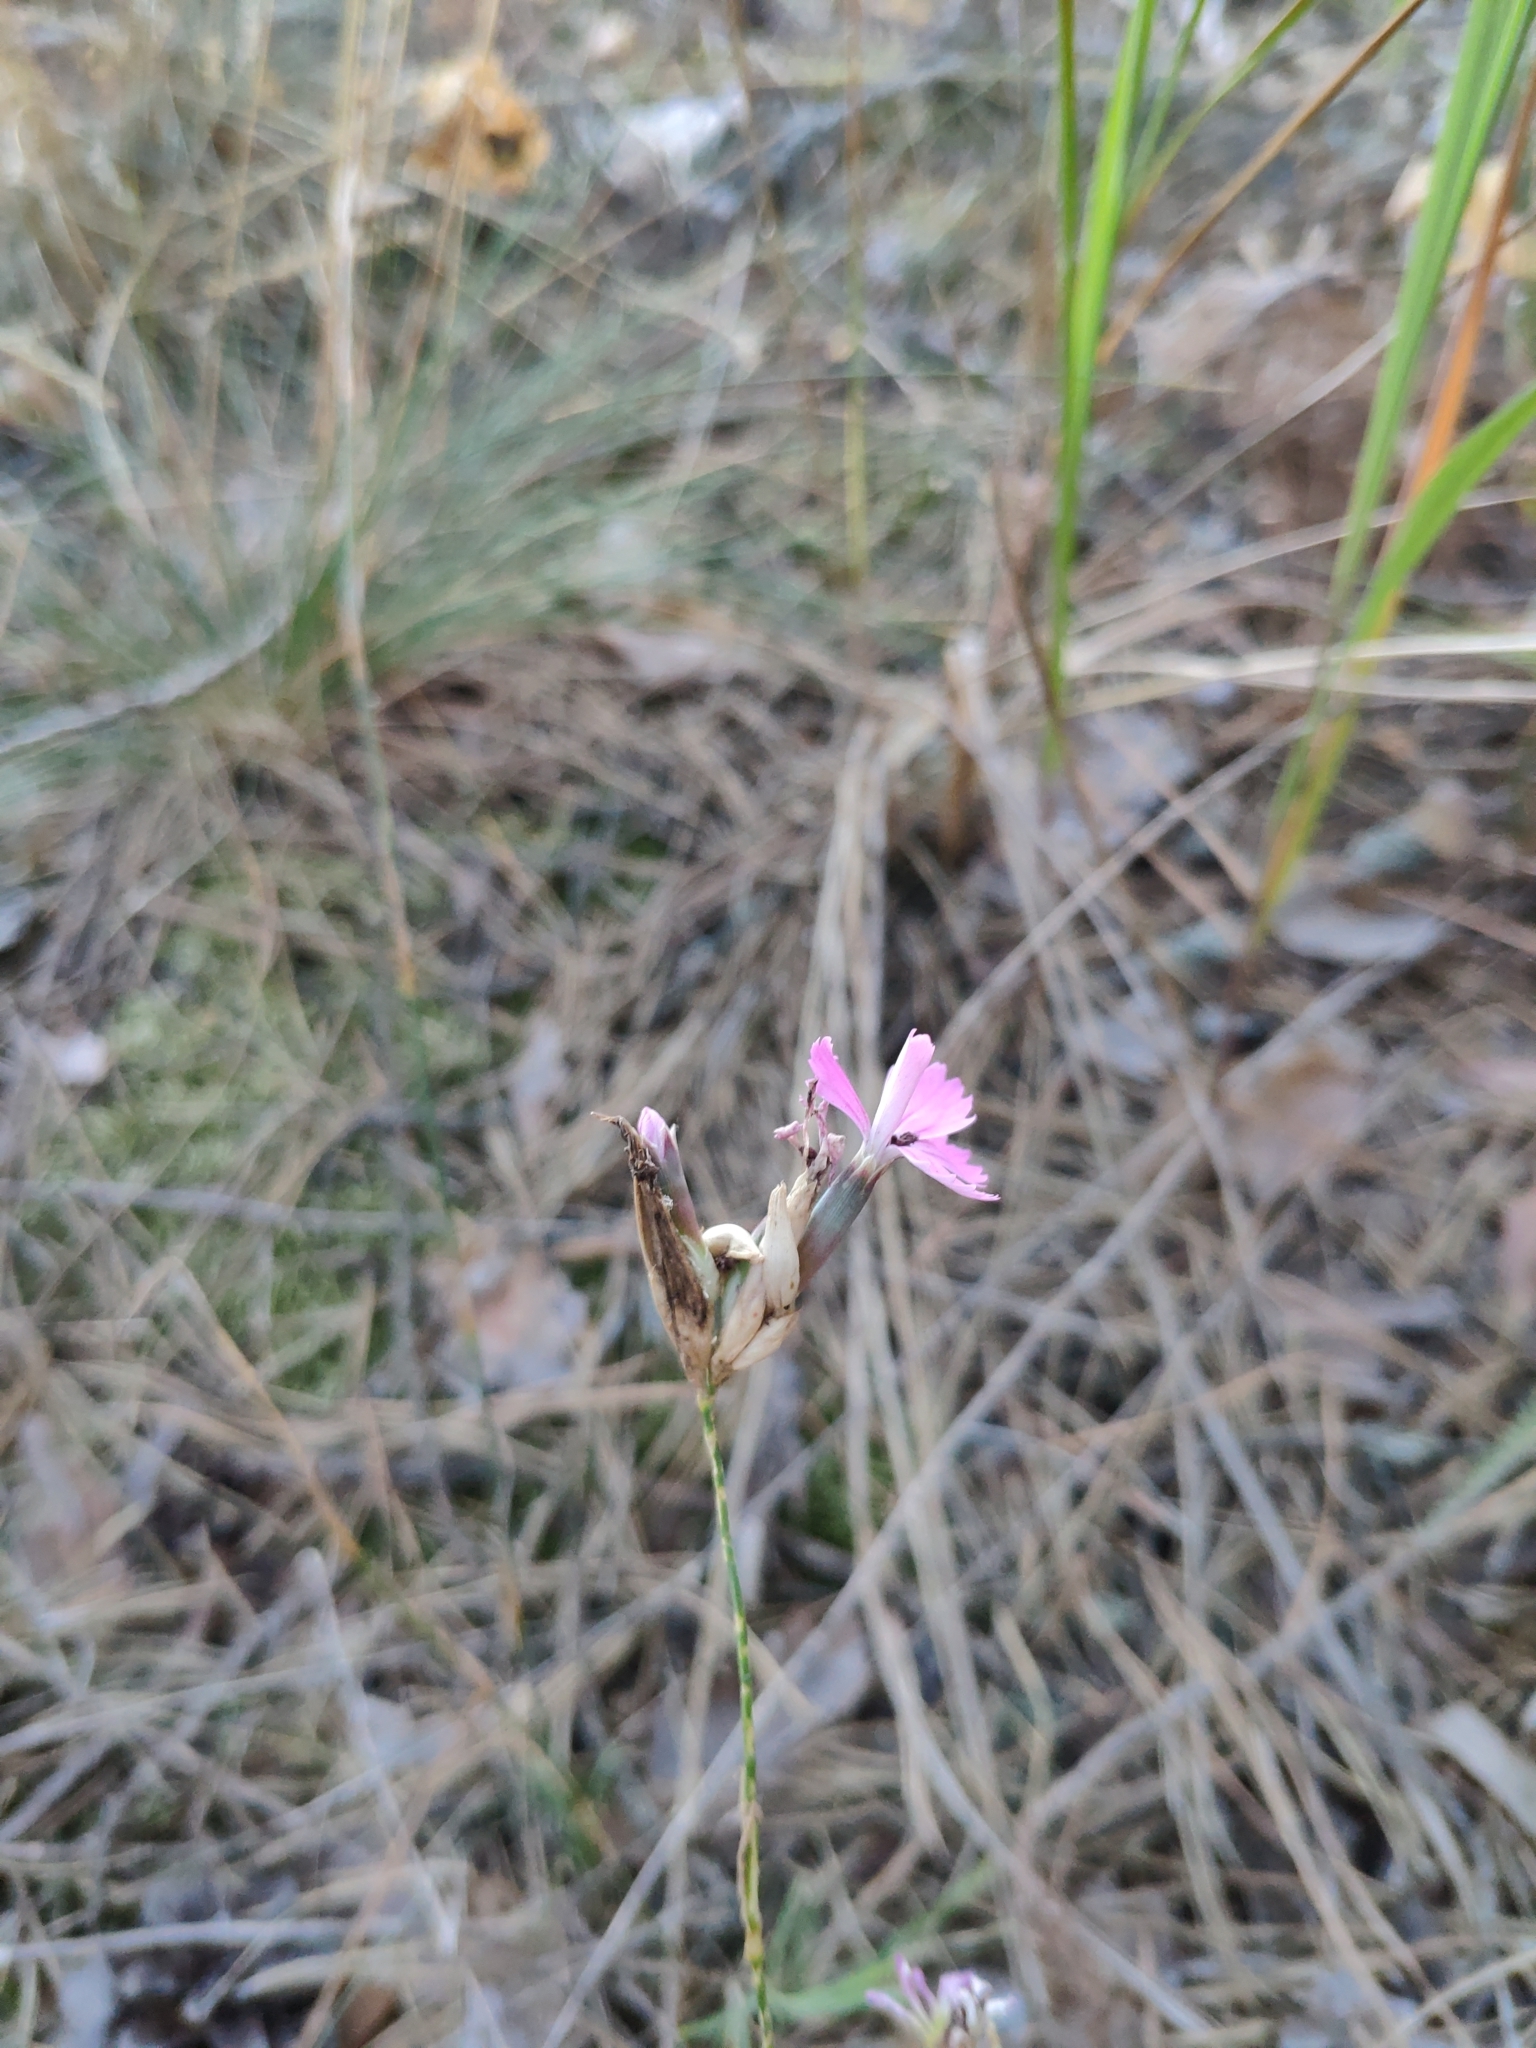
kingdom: Plantae
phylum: Tracheophyta
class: Magnoliopsida
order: Caryophyllales
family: Caryophyllaceae
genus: Dianthus
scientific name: Dianthus borbasii
